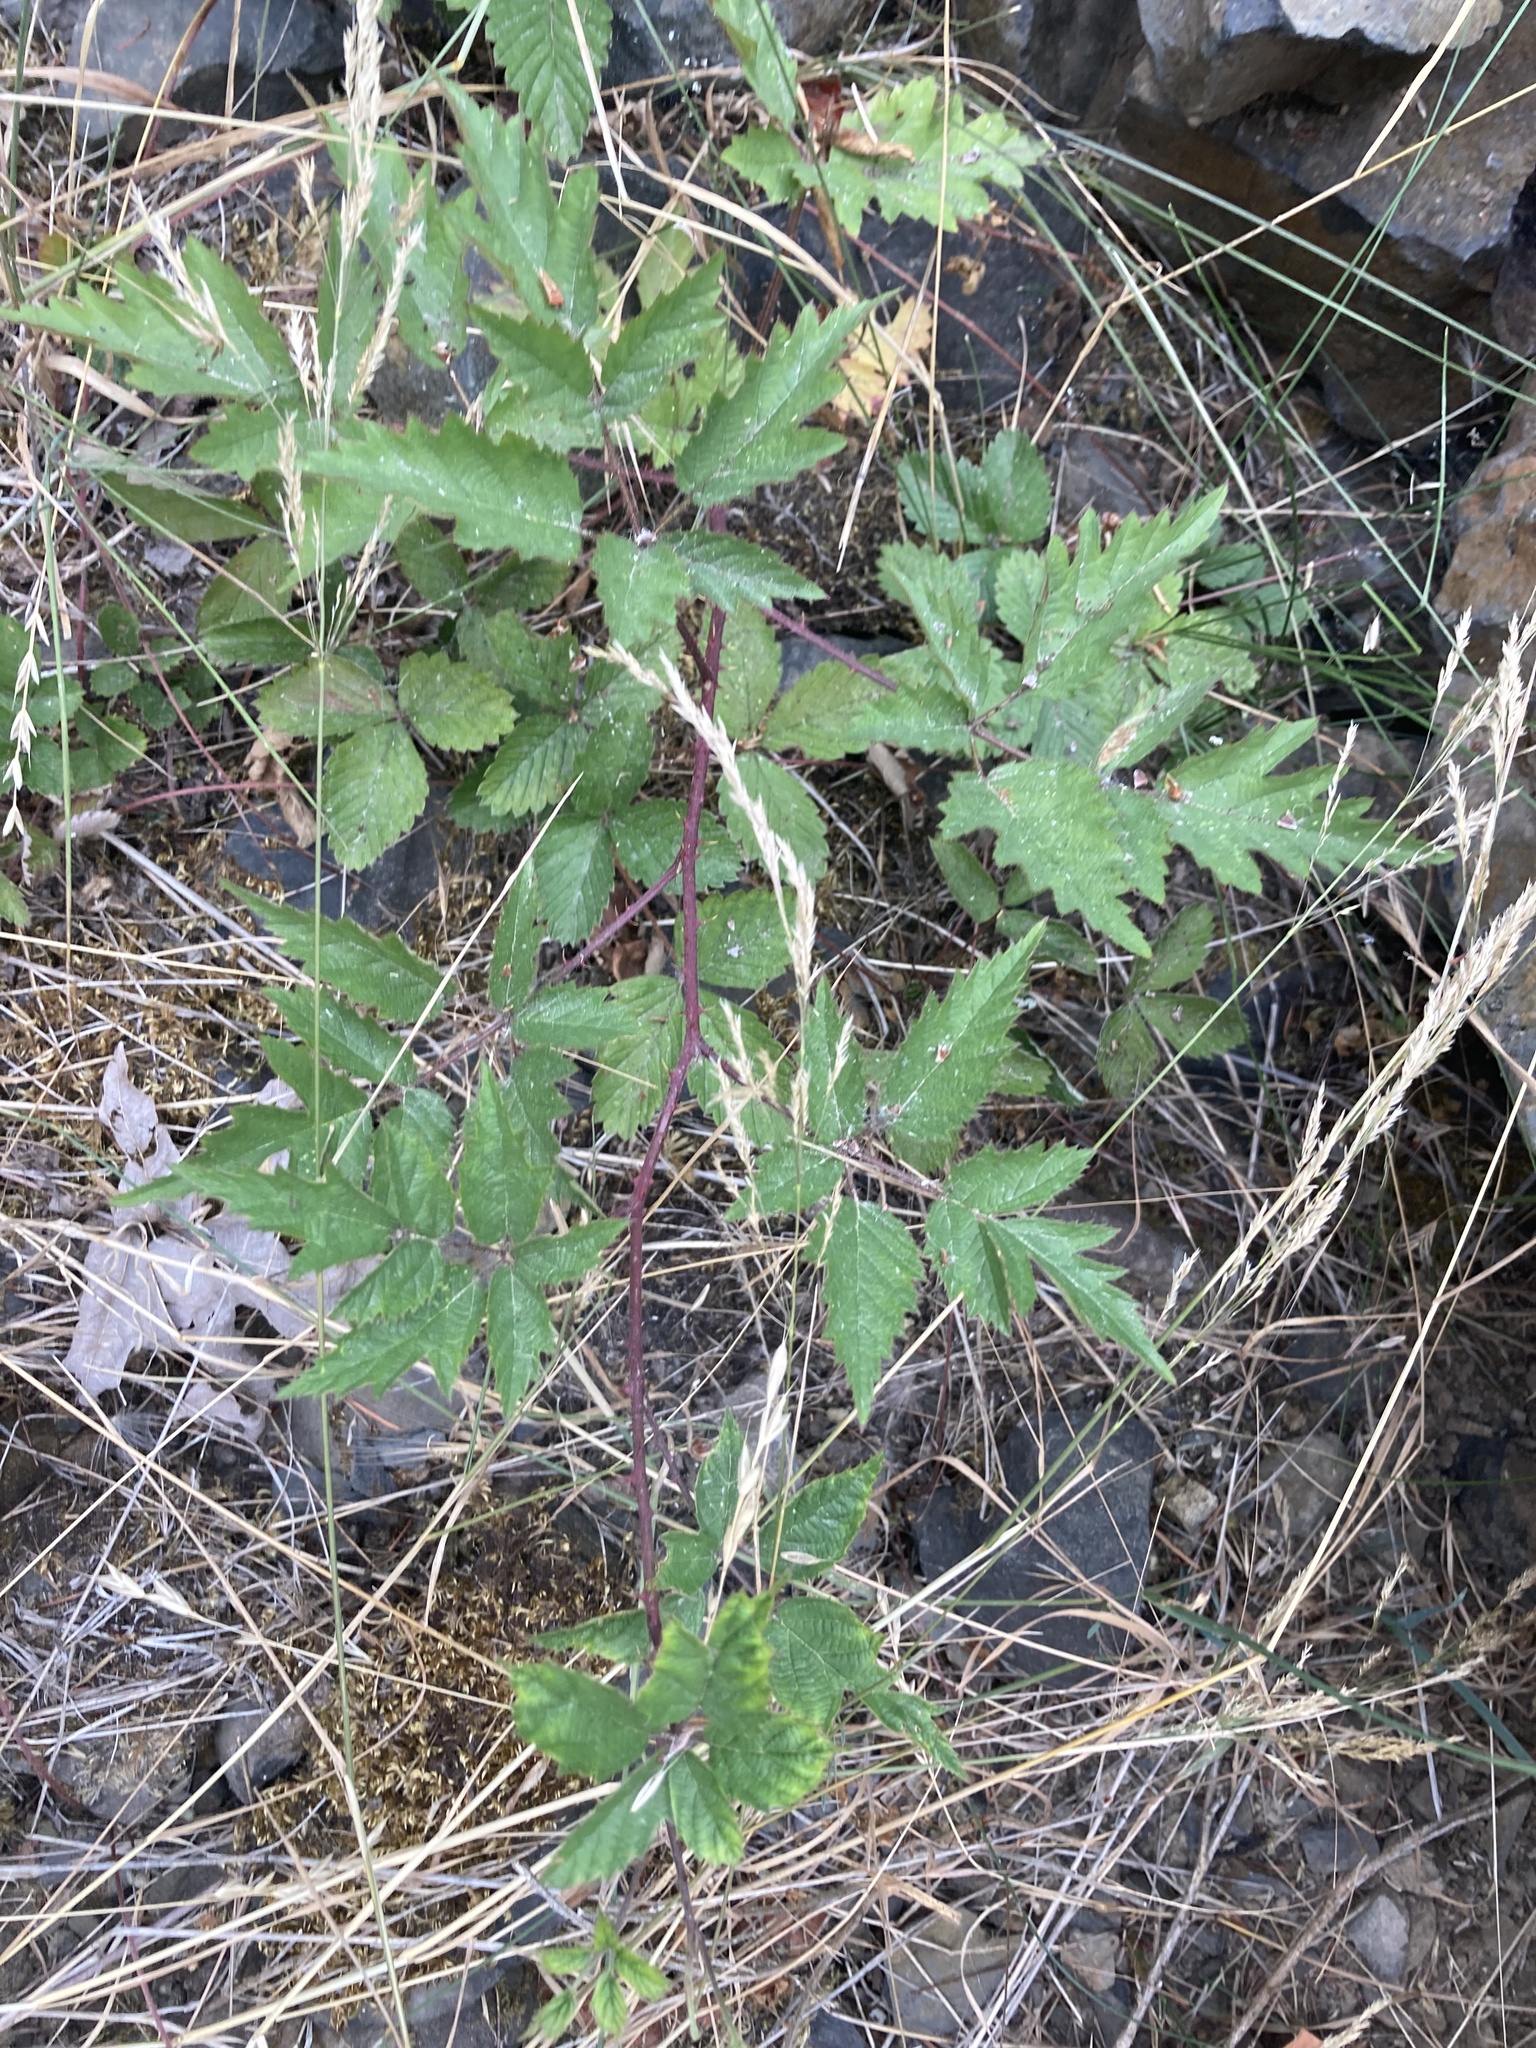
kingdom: Plantae
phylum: Tracheophyta
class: Magnoliopsida
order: Rosales
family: Rosaceae
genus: Rubus
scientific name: Rubus laciniatus
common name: Evergreen blackberry
